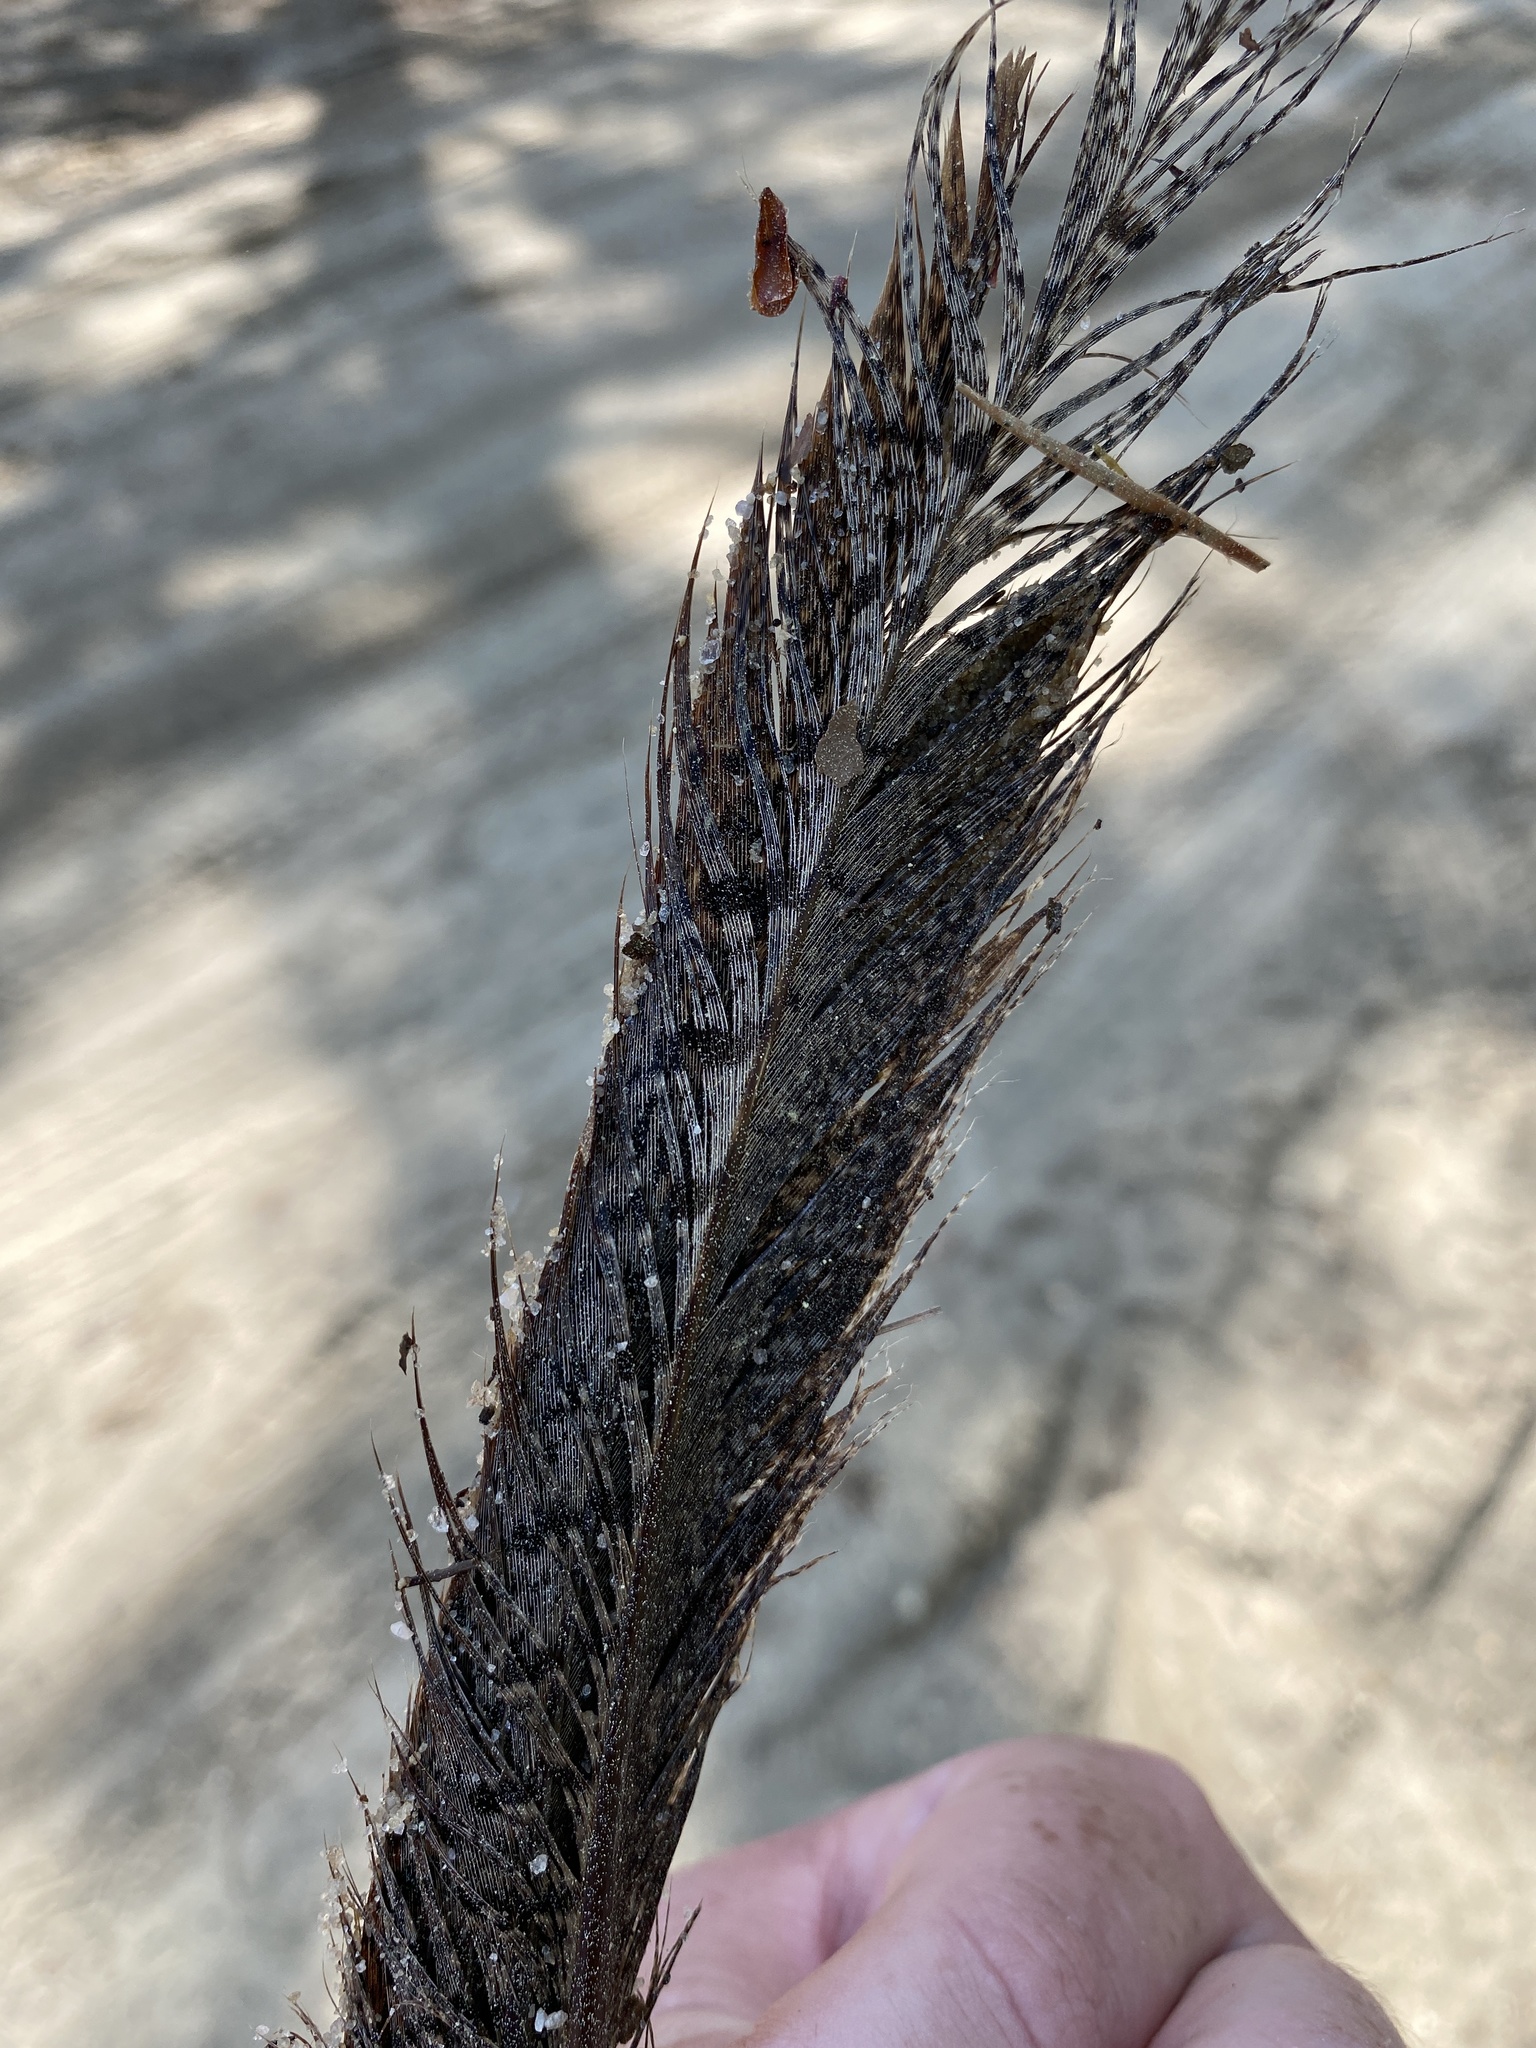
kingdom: Animalia
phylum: Chordata
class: Aves
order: Galliformes
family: Phasianidae
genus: Phasianus
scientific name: Phasianus colchicus
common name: Common pheasant
